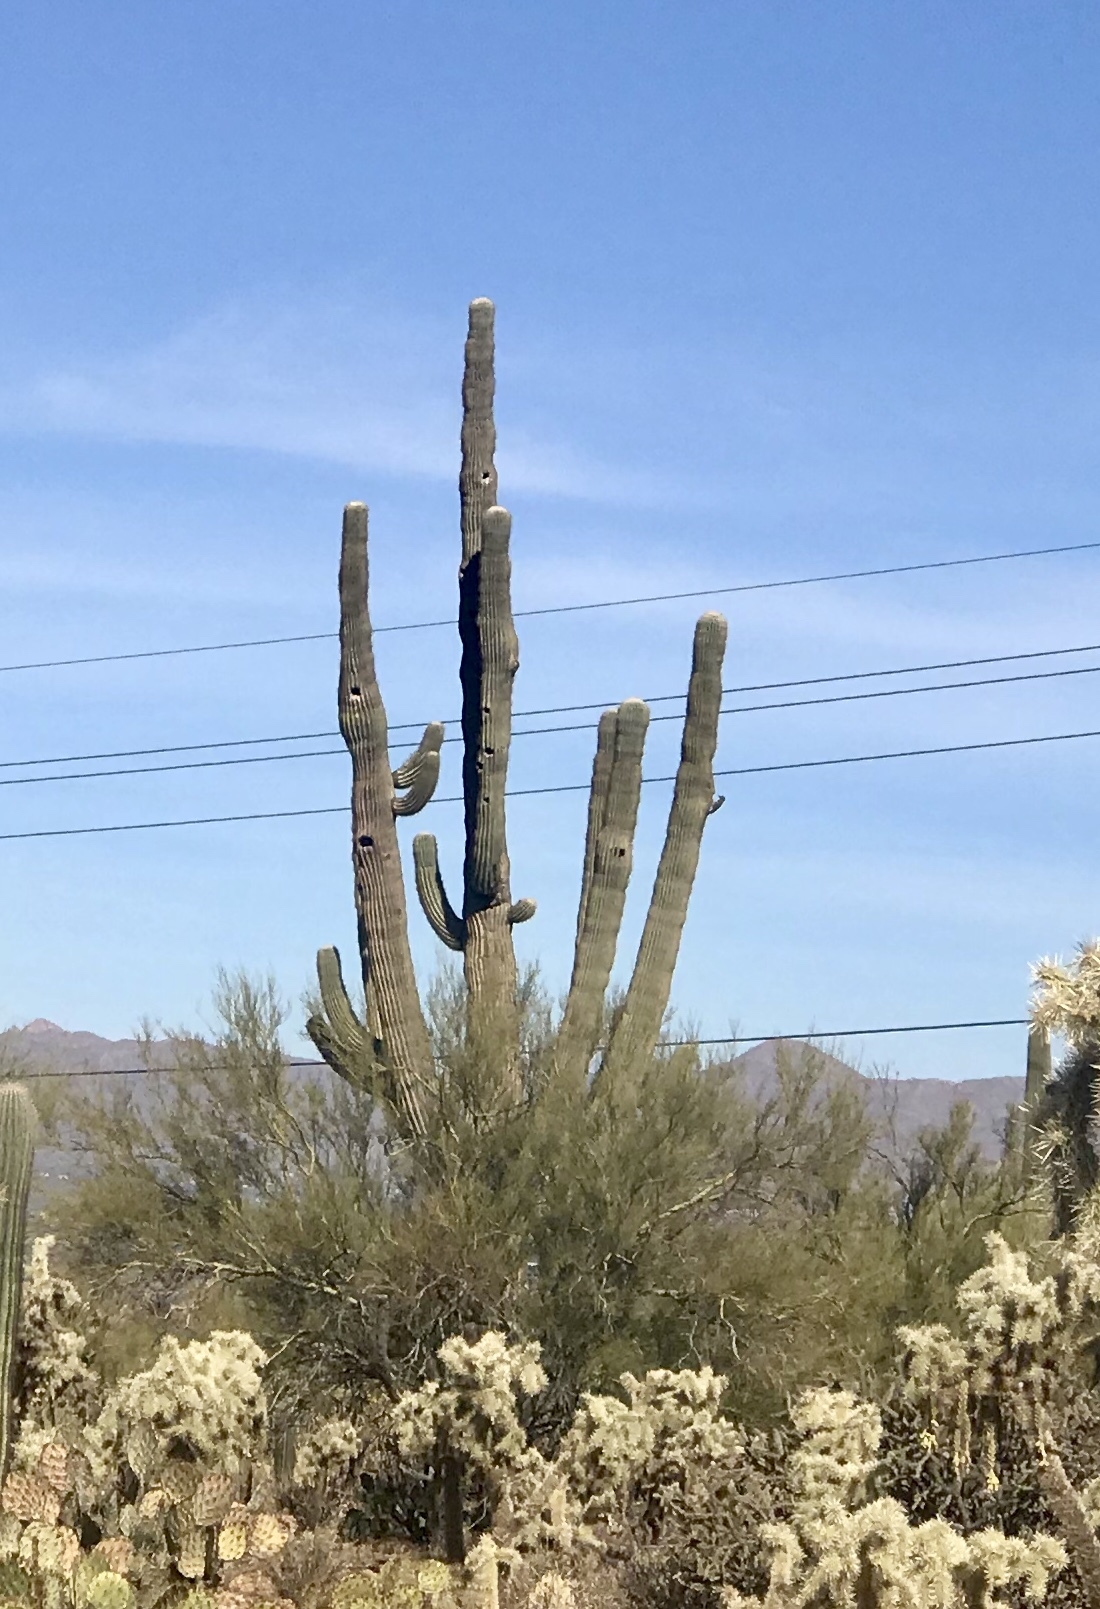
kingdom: Plantae
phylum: Tracheophyta
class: Magnoliopsida
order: Caryophyllales
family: Cactaceae
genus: Carnegiea
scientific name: Carnegiea gigantea
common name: Saguaro
